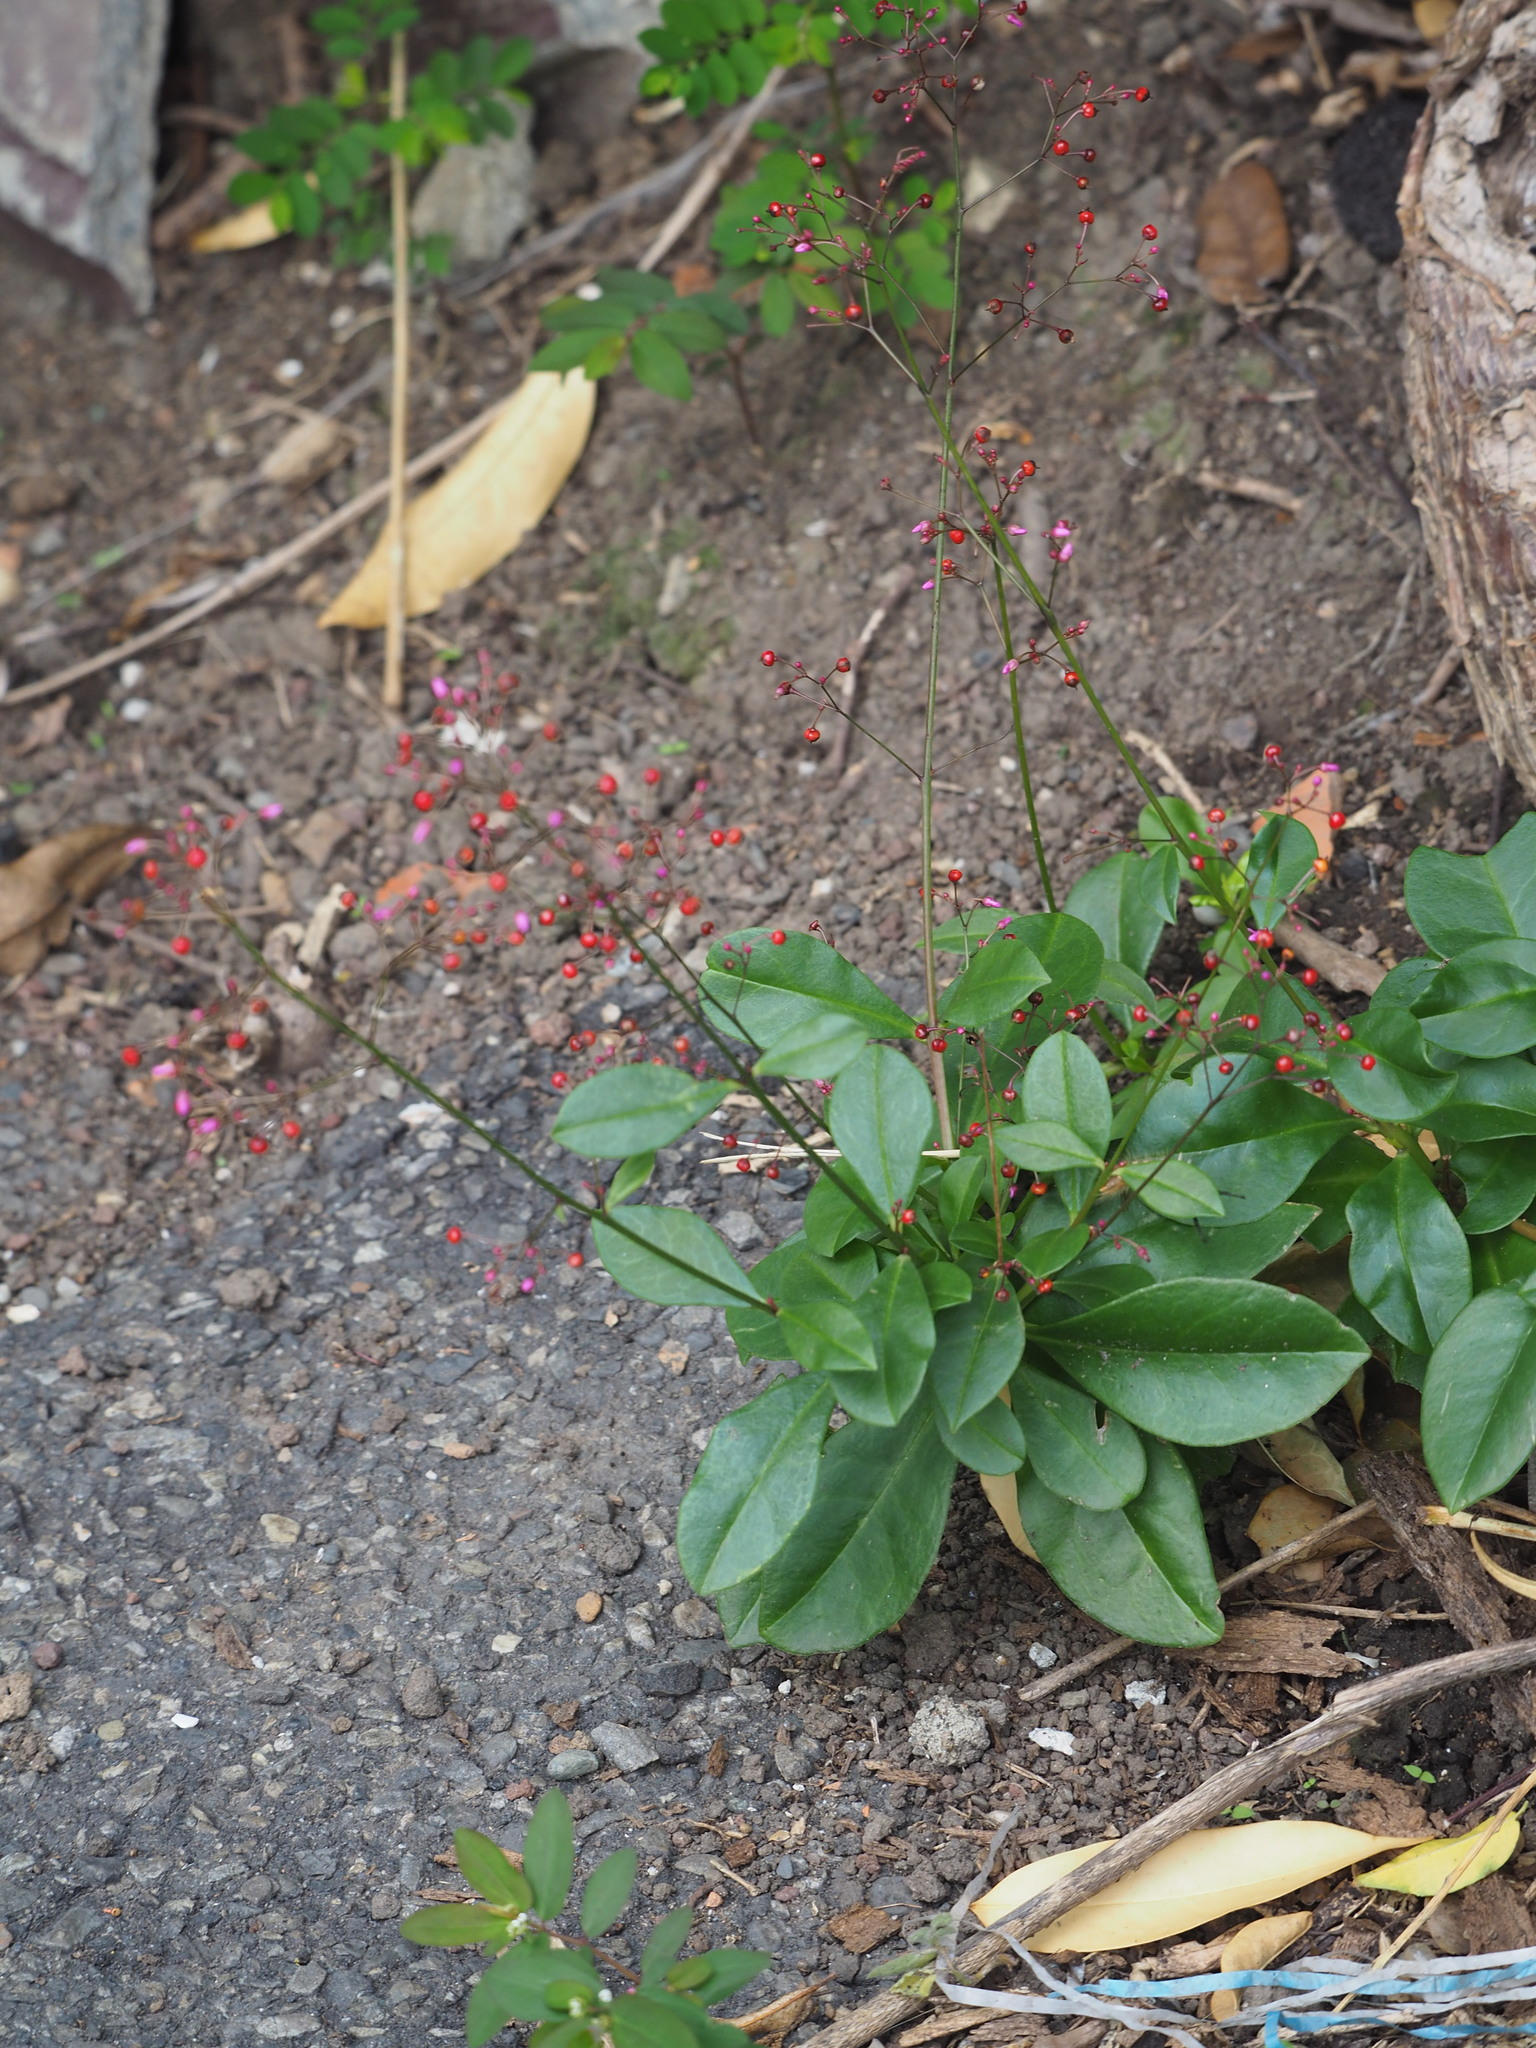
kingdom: Plantae
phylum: Tracheophyta
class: Magnoliopsida
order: Caryophyllales
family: Talinaceae
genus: Talinum
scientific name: Talinum paniculatum
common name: Jewels of opar
